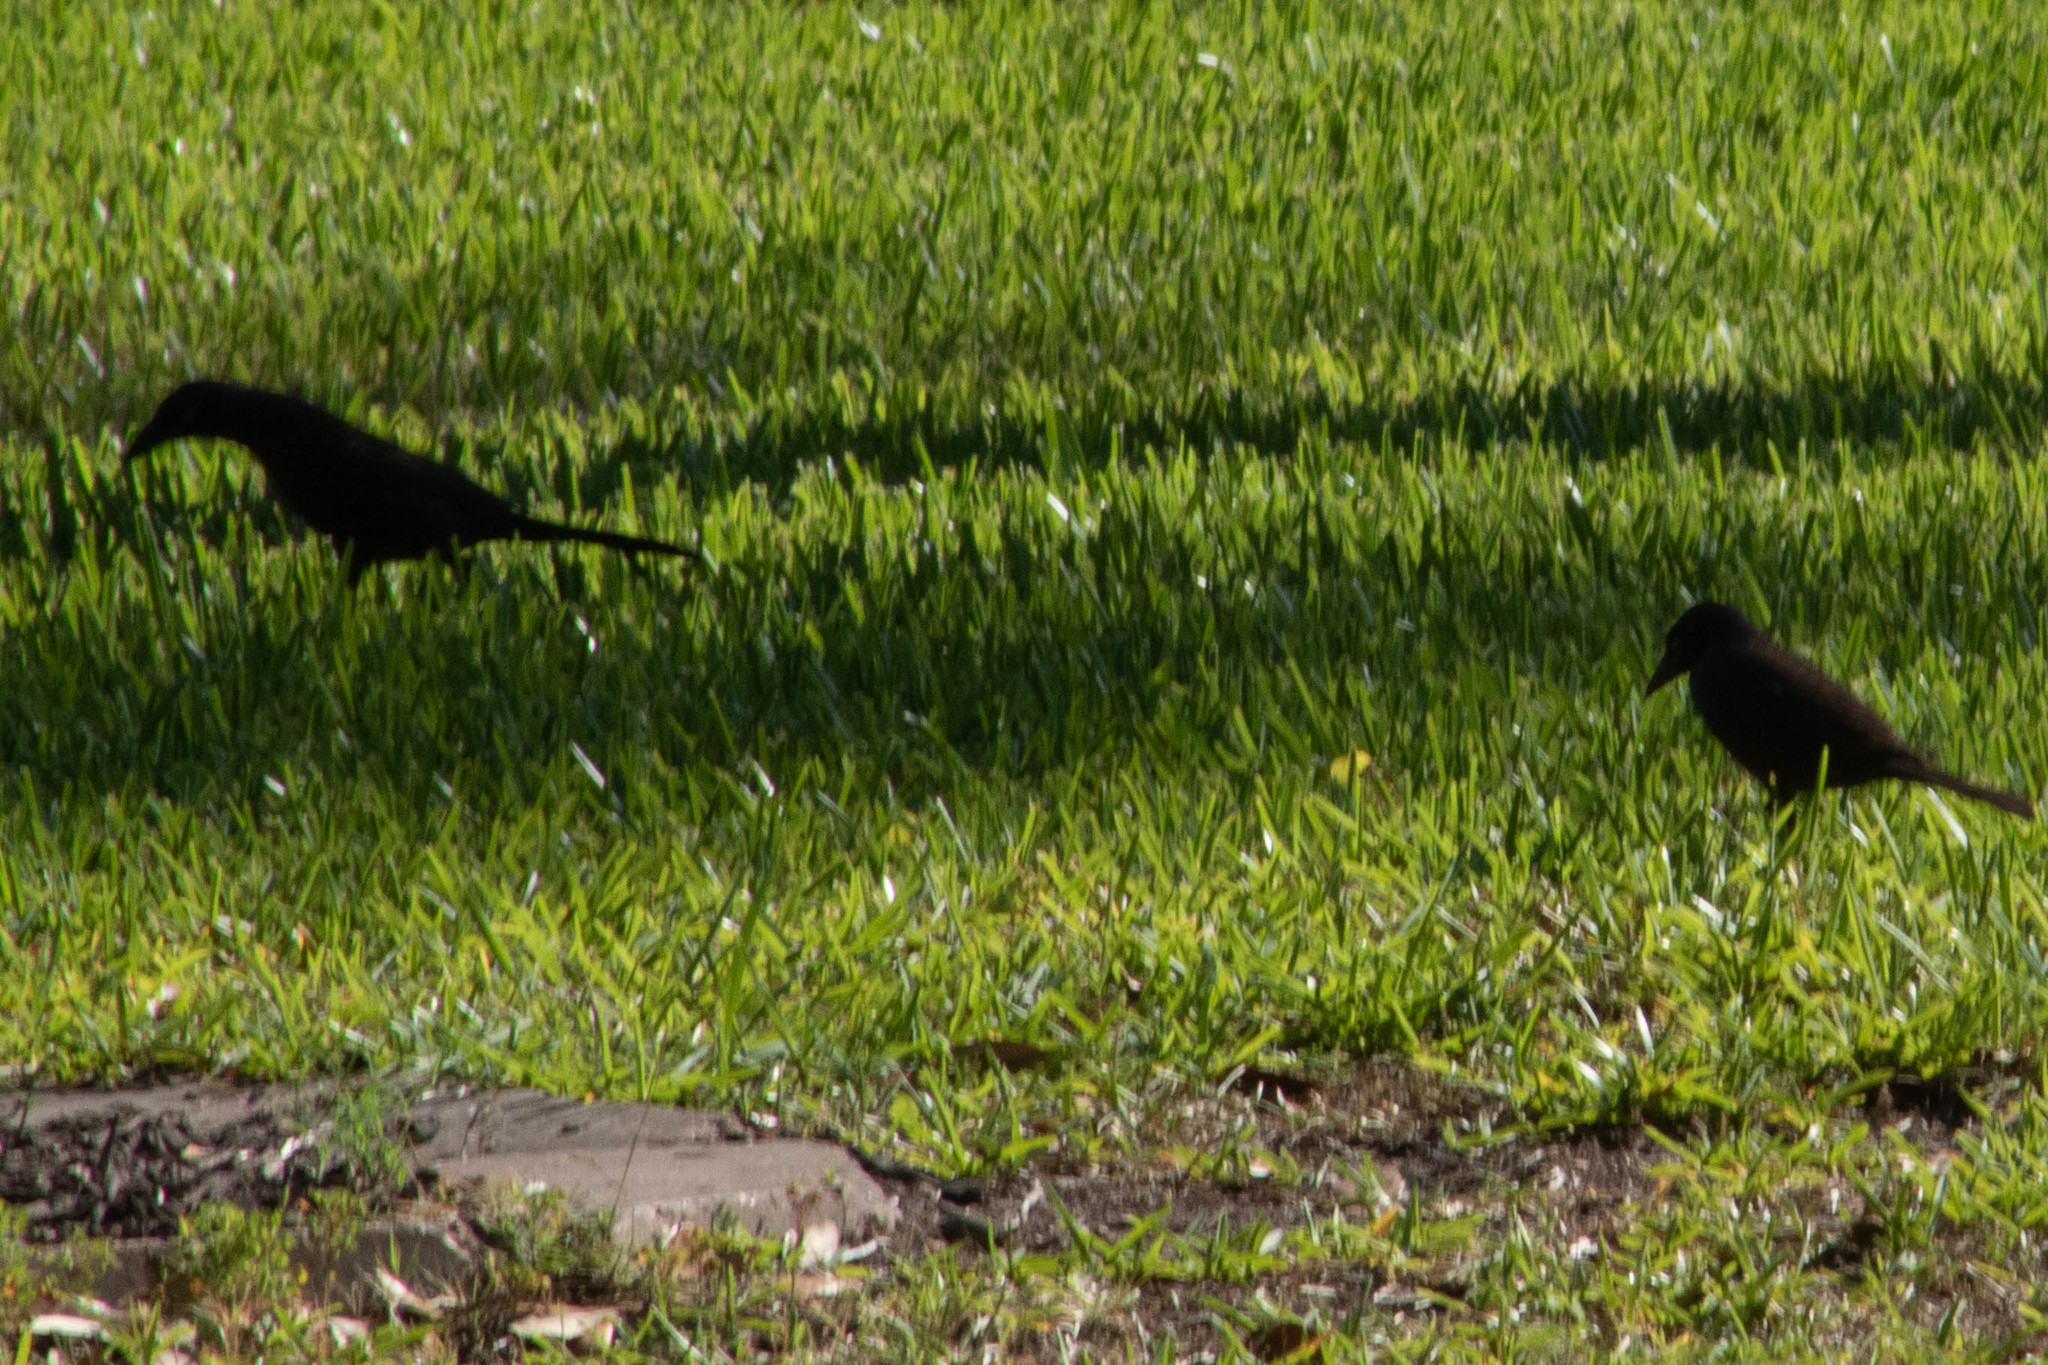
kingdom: Animalia
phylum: Chordata
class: Aves
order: Passeriformes
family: Icteridae
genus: Quiscalus
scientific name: Quiscalus quiscula
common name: Common grackle
